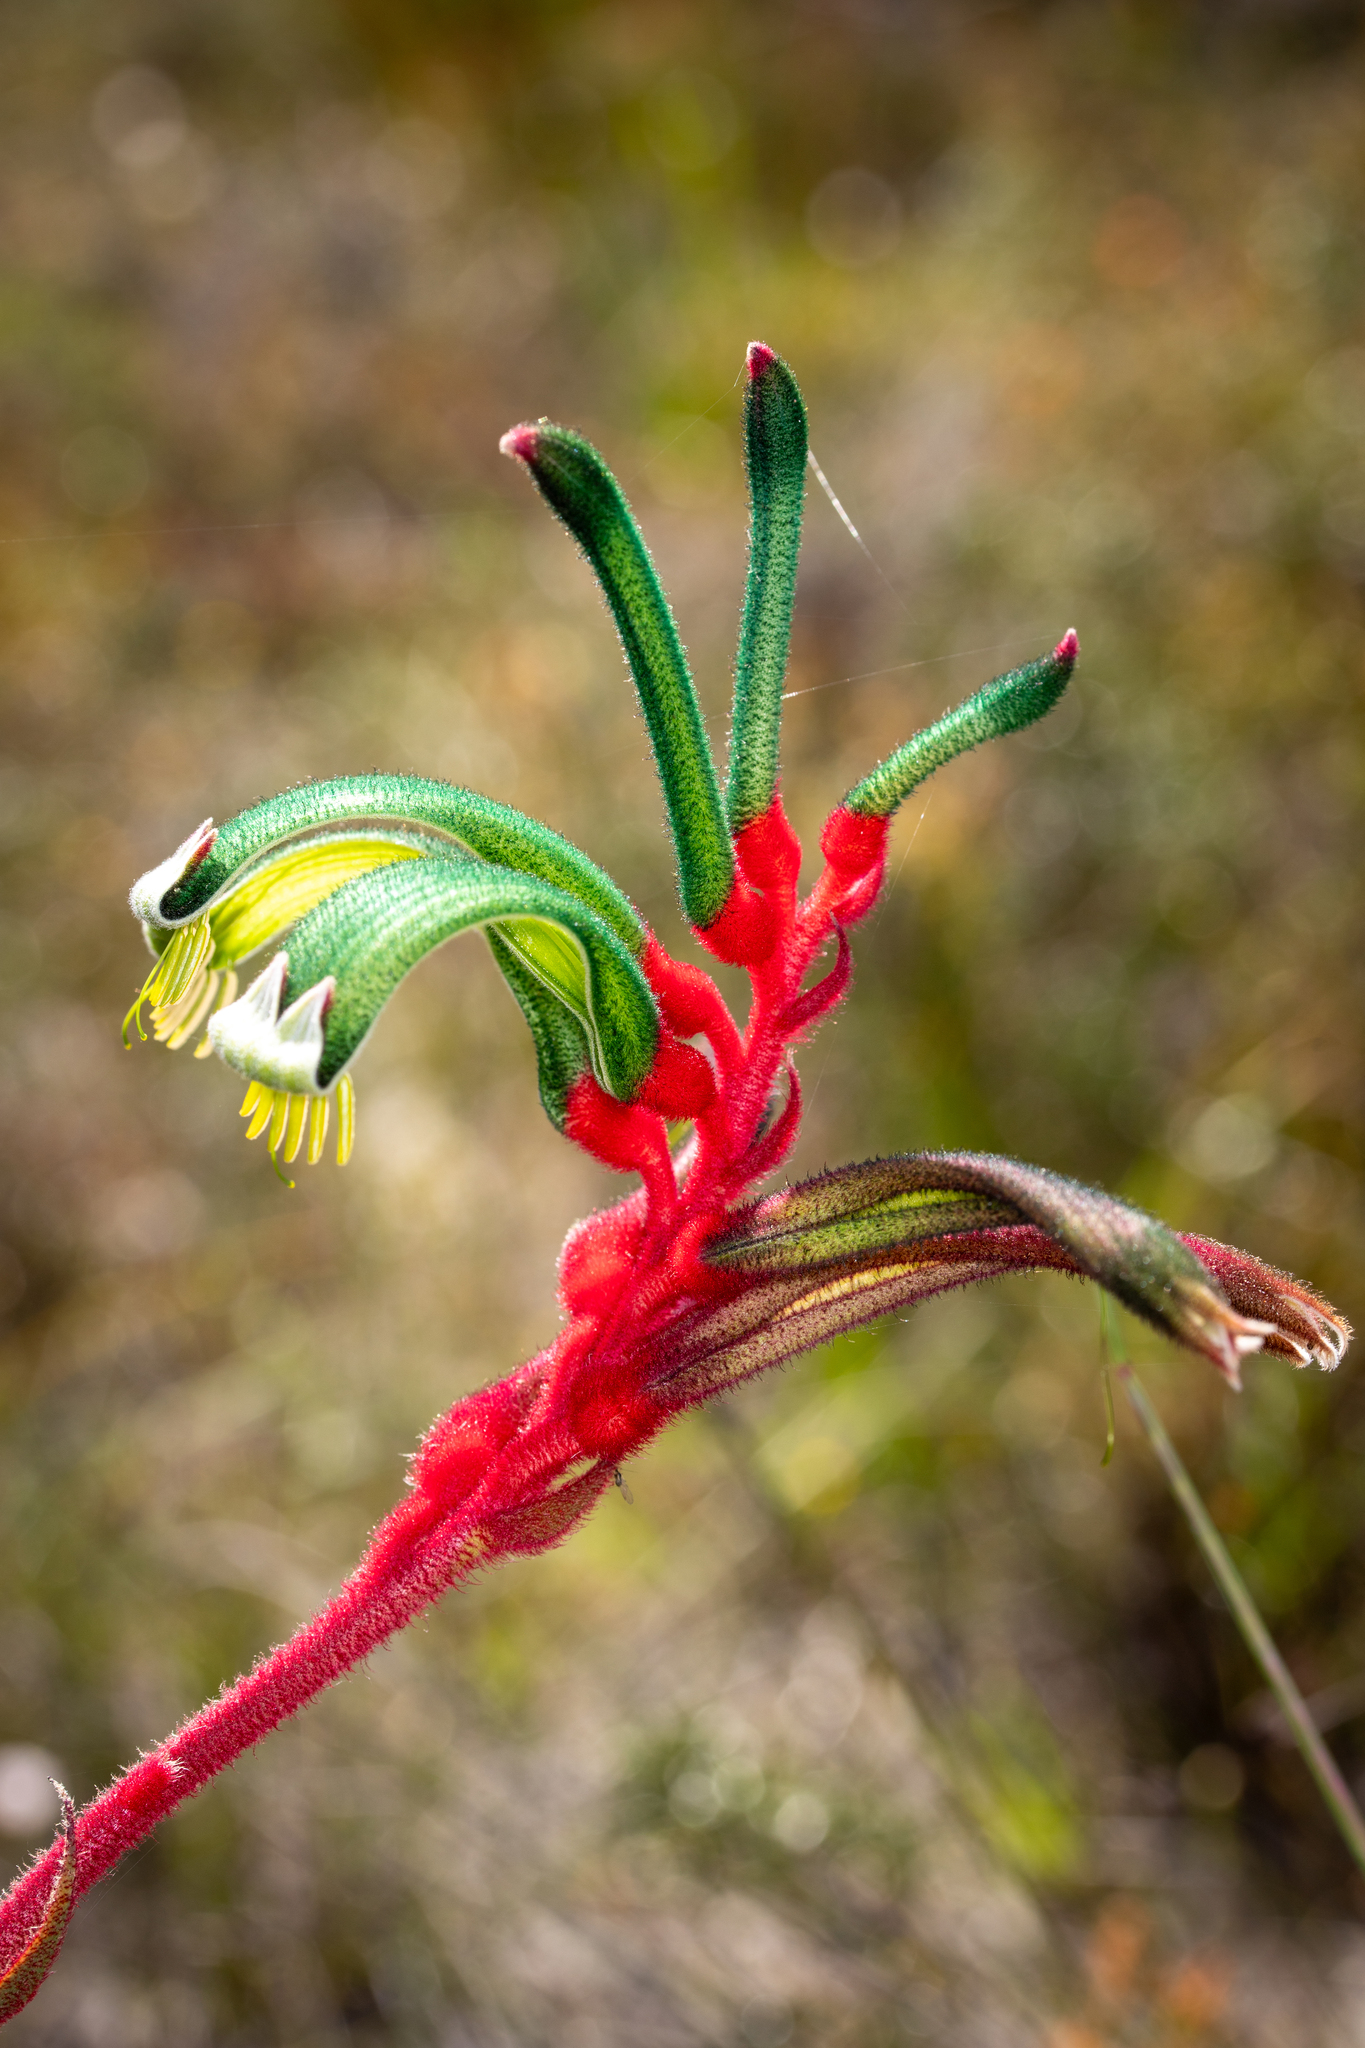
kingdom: Plantae
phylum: Tracheophyta
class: Liliopsida
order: Commelinales
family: Haemodoraceae
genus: Anigozanthos
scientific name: Anigozanthos manglesii
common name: Mangles's kangaroo-paw
